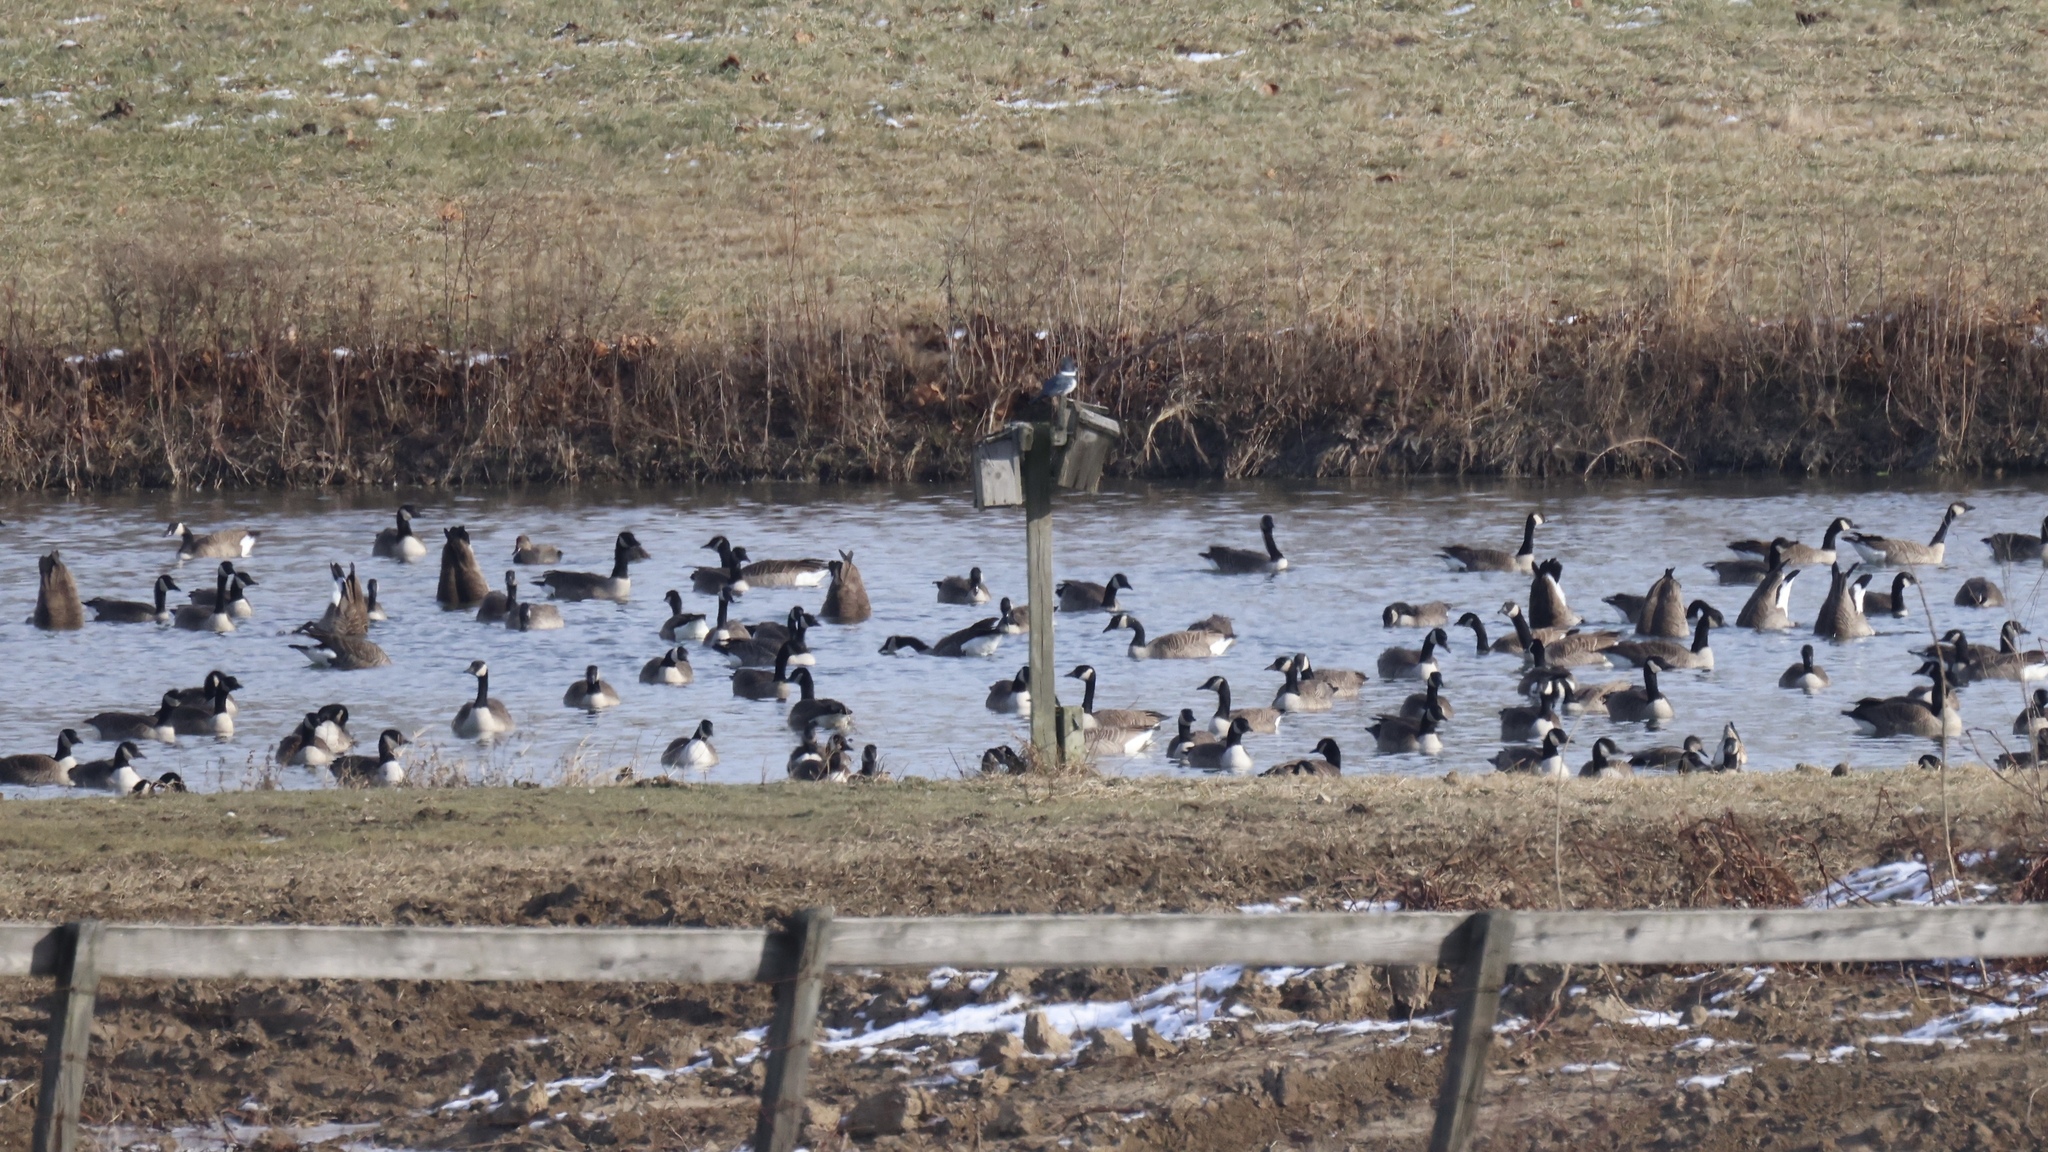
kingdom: Animalia
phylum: Chordata
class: Aves
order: Anseriformes
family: Anatidae
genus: Branta
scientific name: Branta canadensis
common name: Canada goose
